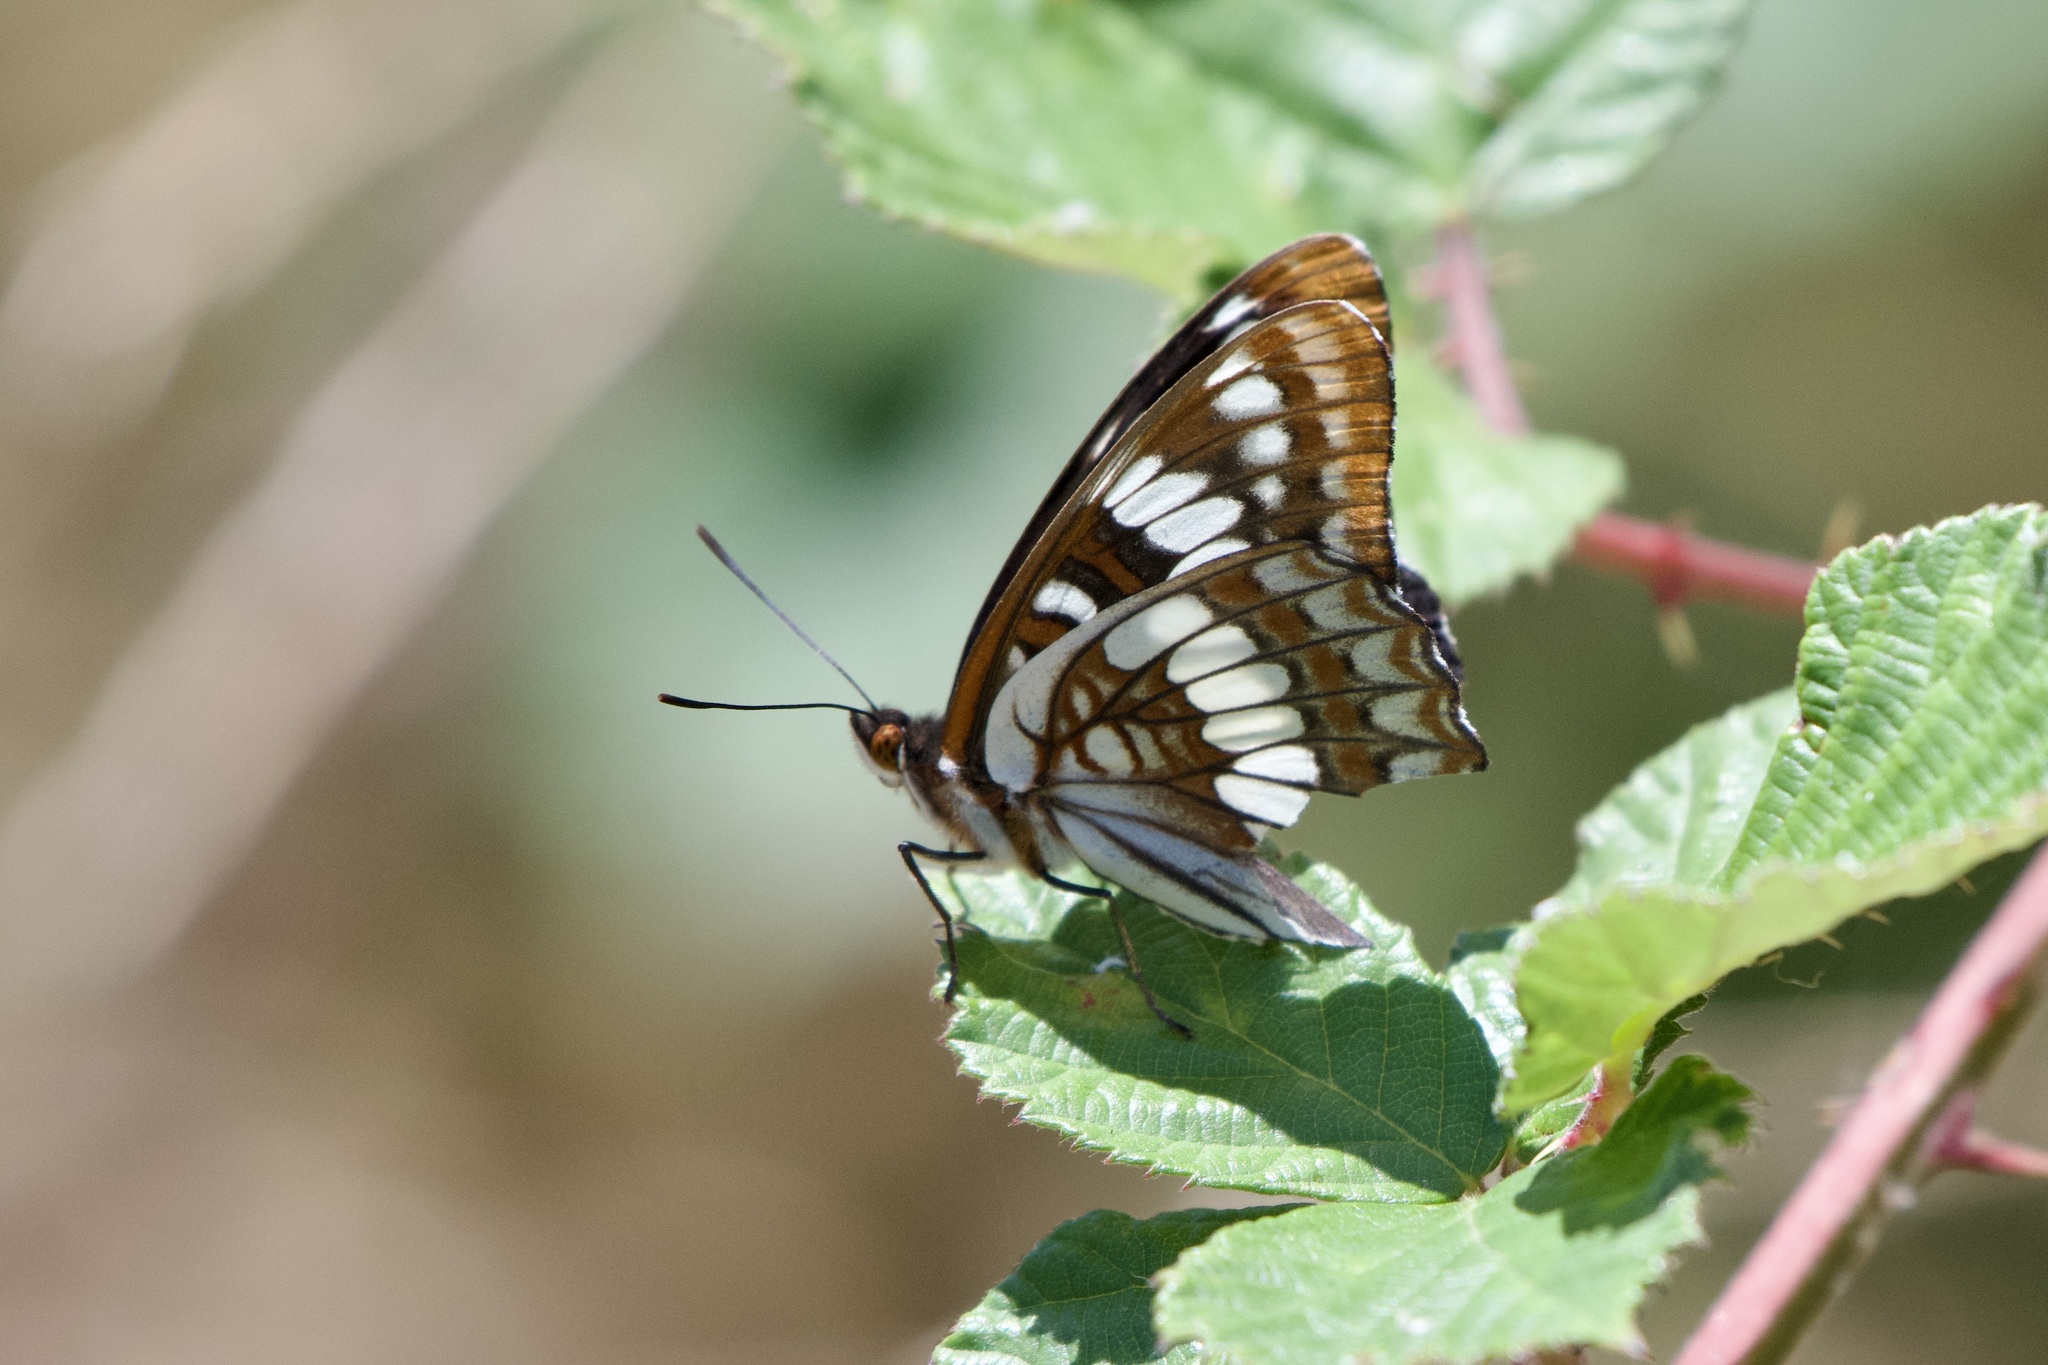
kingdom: Animalia
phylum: Arthropoda
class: Insecta
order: Lepidoptera
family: Nymphalidae
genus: Limenitis
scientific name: Limenitis lorquini
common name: Lorquin's admiral
